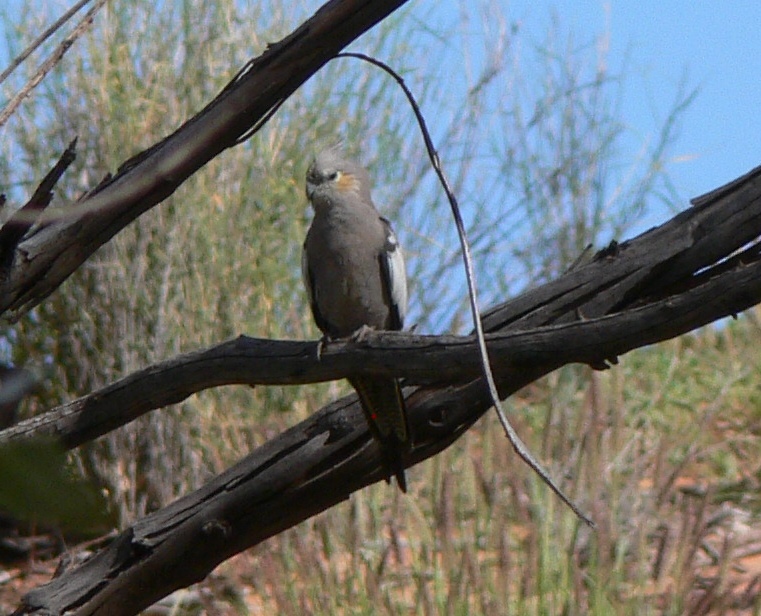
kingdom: Animalia
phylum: Chordata
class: Aves
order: Psittaciformes
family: Psittacidae
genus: Nymphicus
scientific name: Nymphicus hollandicus
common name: Cockatiel
